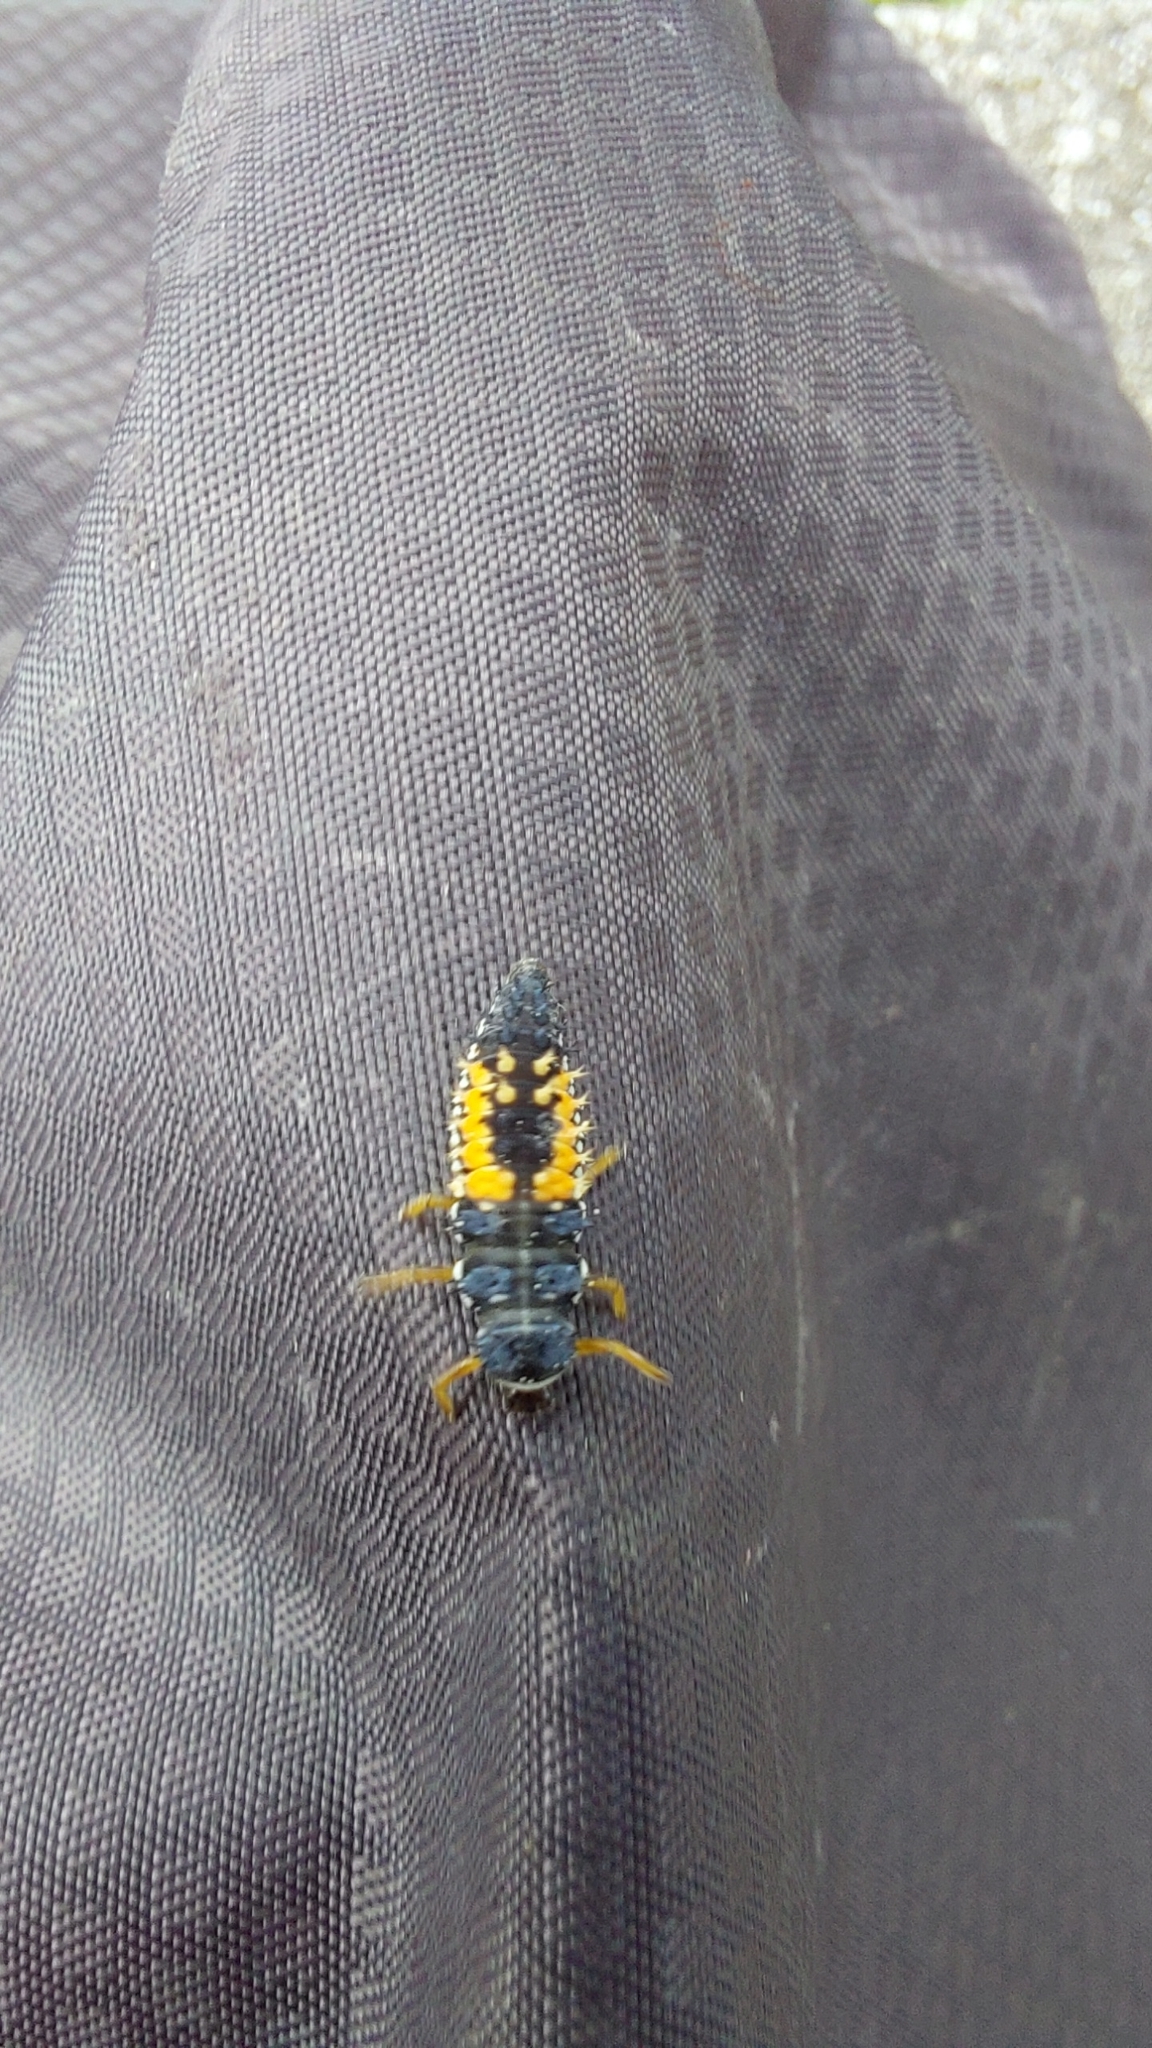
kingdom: Animalia
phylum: Arthropoda
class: Insecta
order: Coleoptera
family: Coccinellidae
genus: Harmonia
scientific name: Harmonia axyridis
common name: Harlequin ladybird
